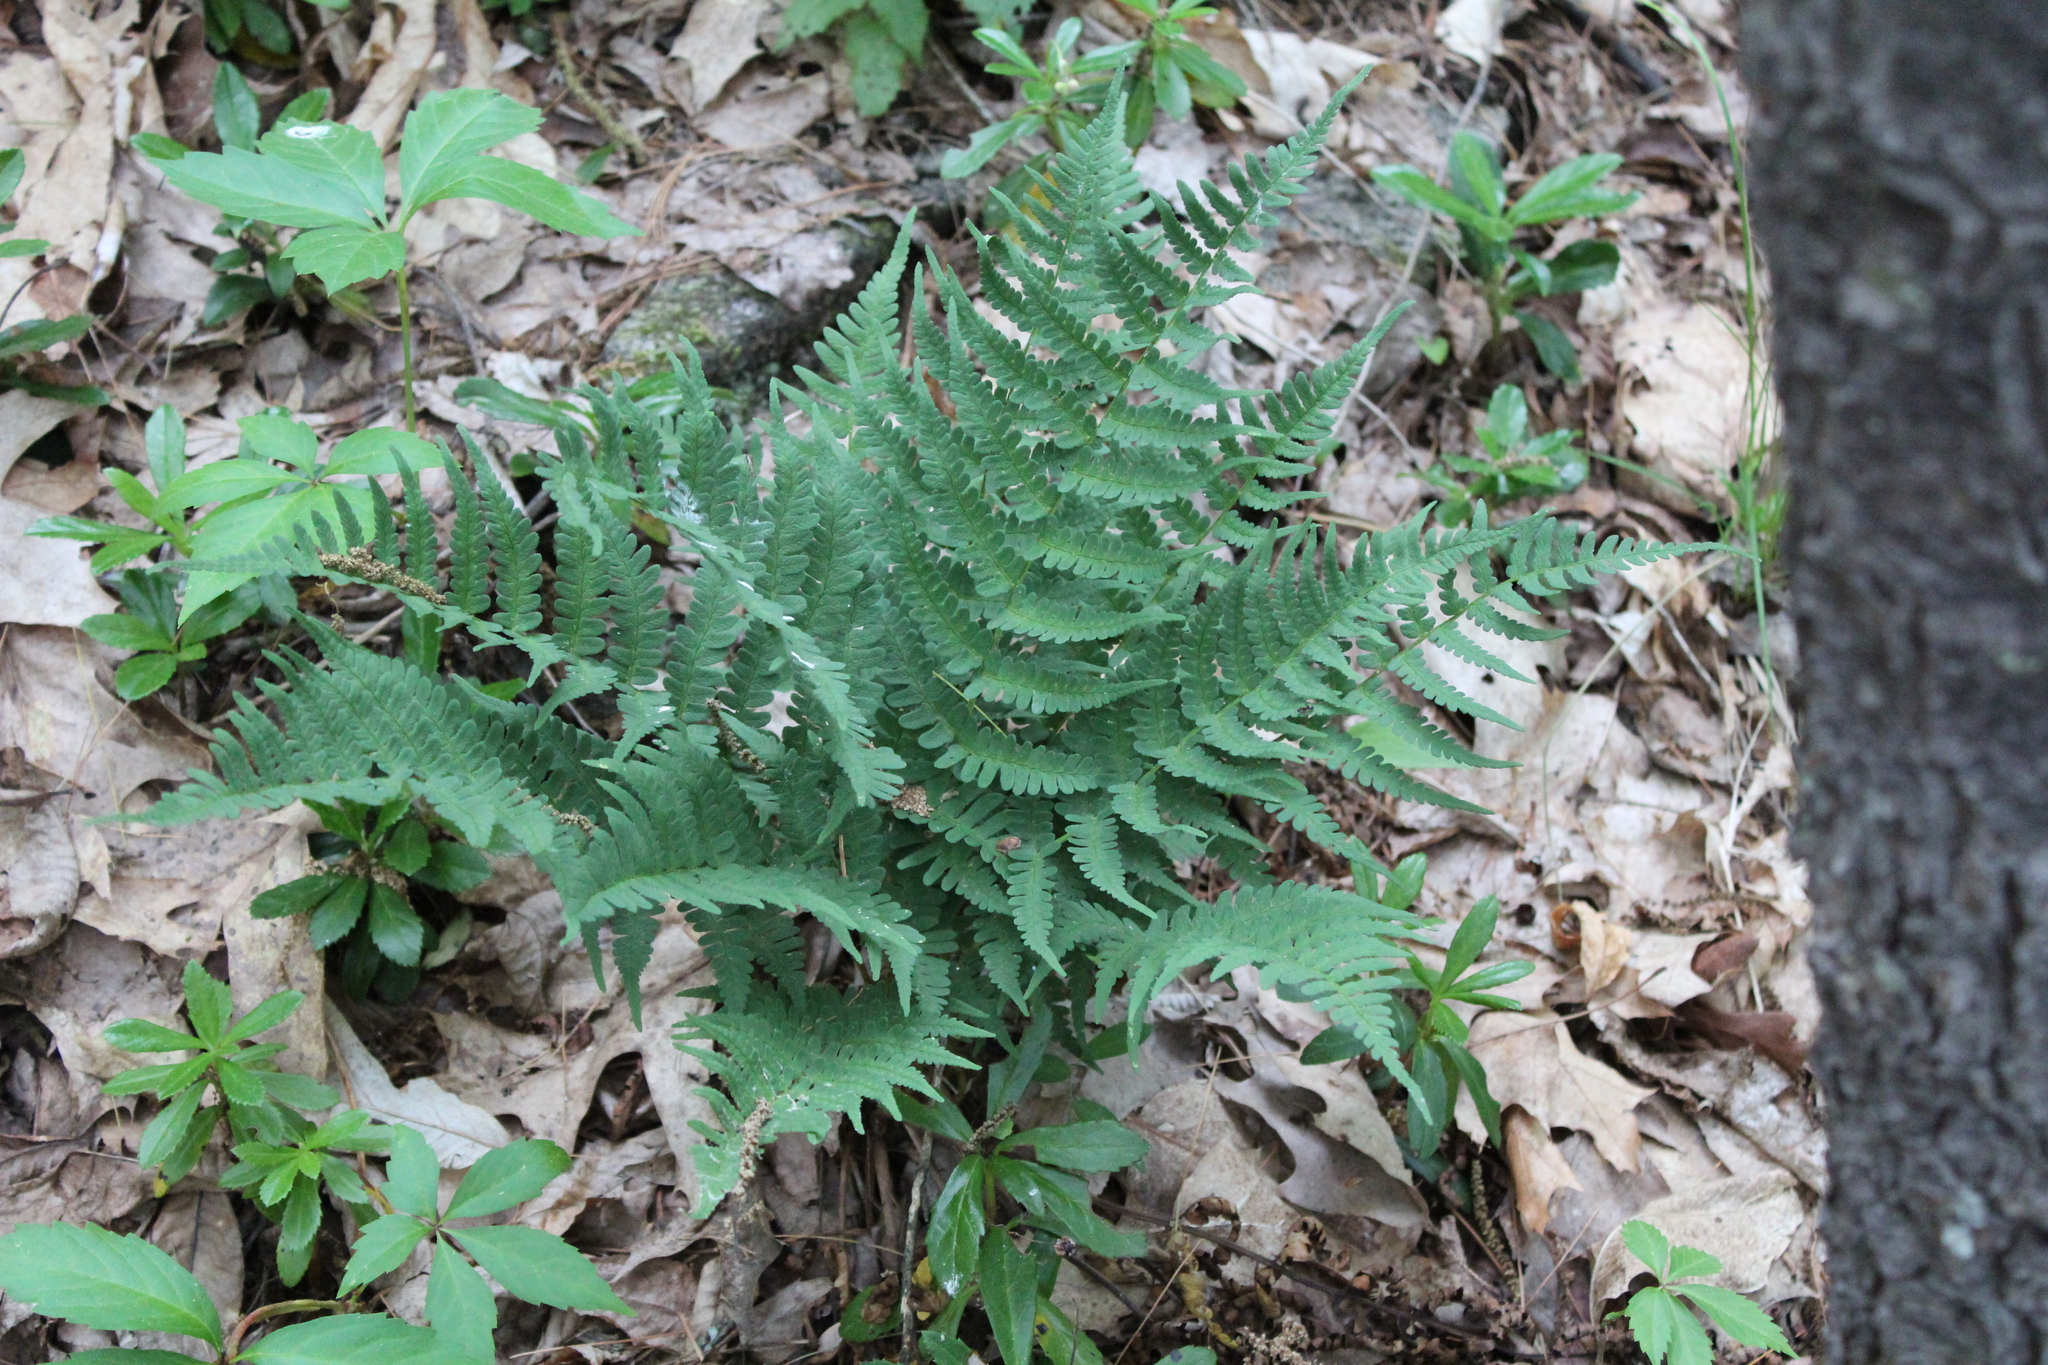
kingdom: Plantae
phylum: Tracheophyta
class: Polypodiopsida
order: Polypodiales
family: Dryopteridaceae
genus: Dryopteris
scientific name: Dryopteris marginalis
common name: Marginal wood fern
